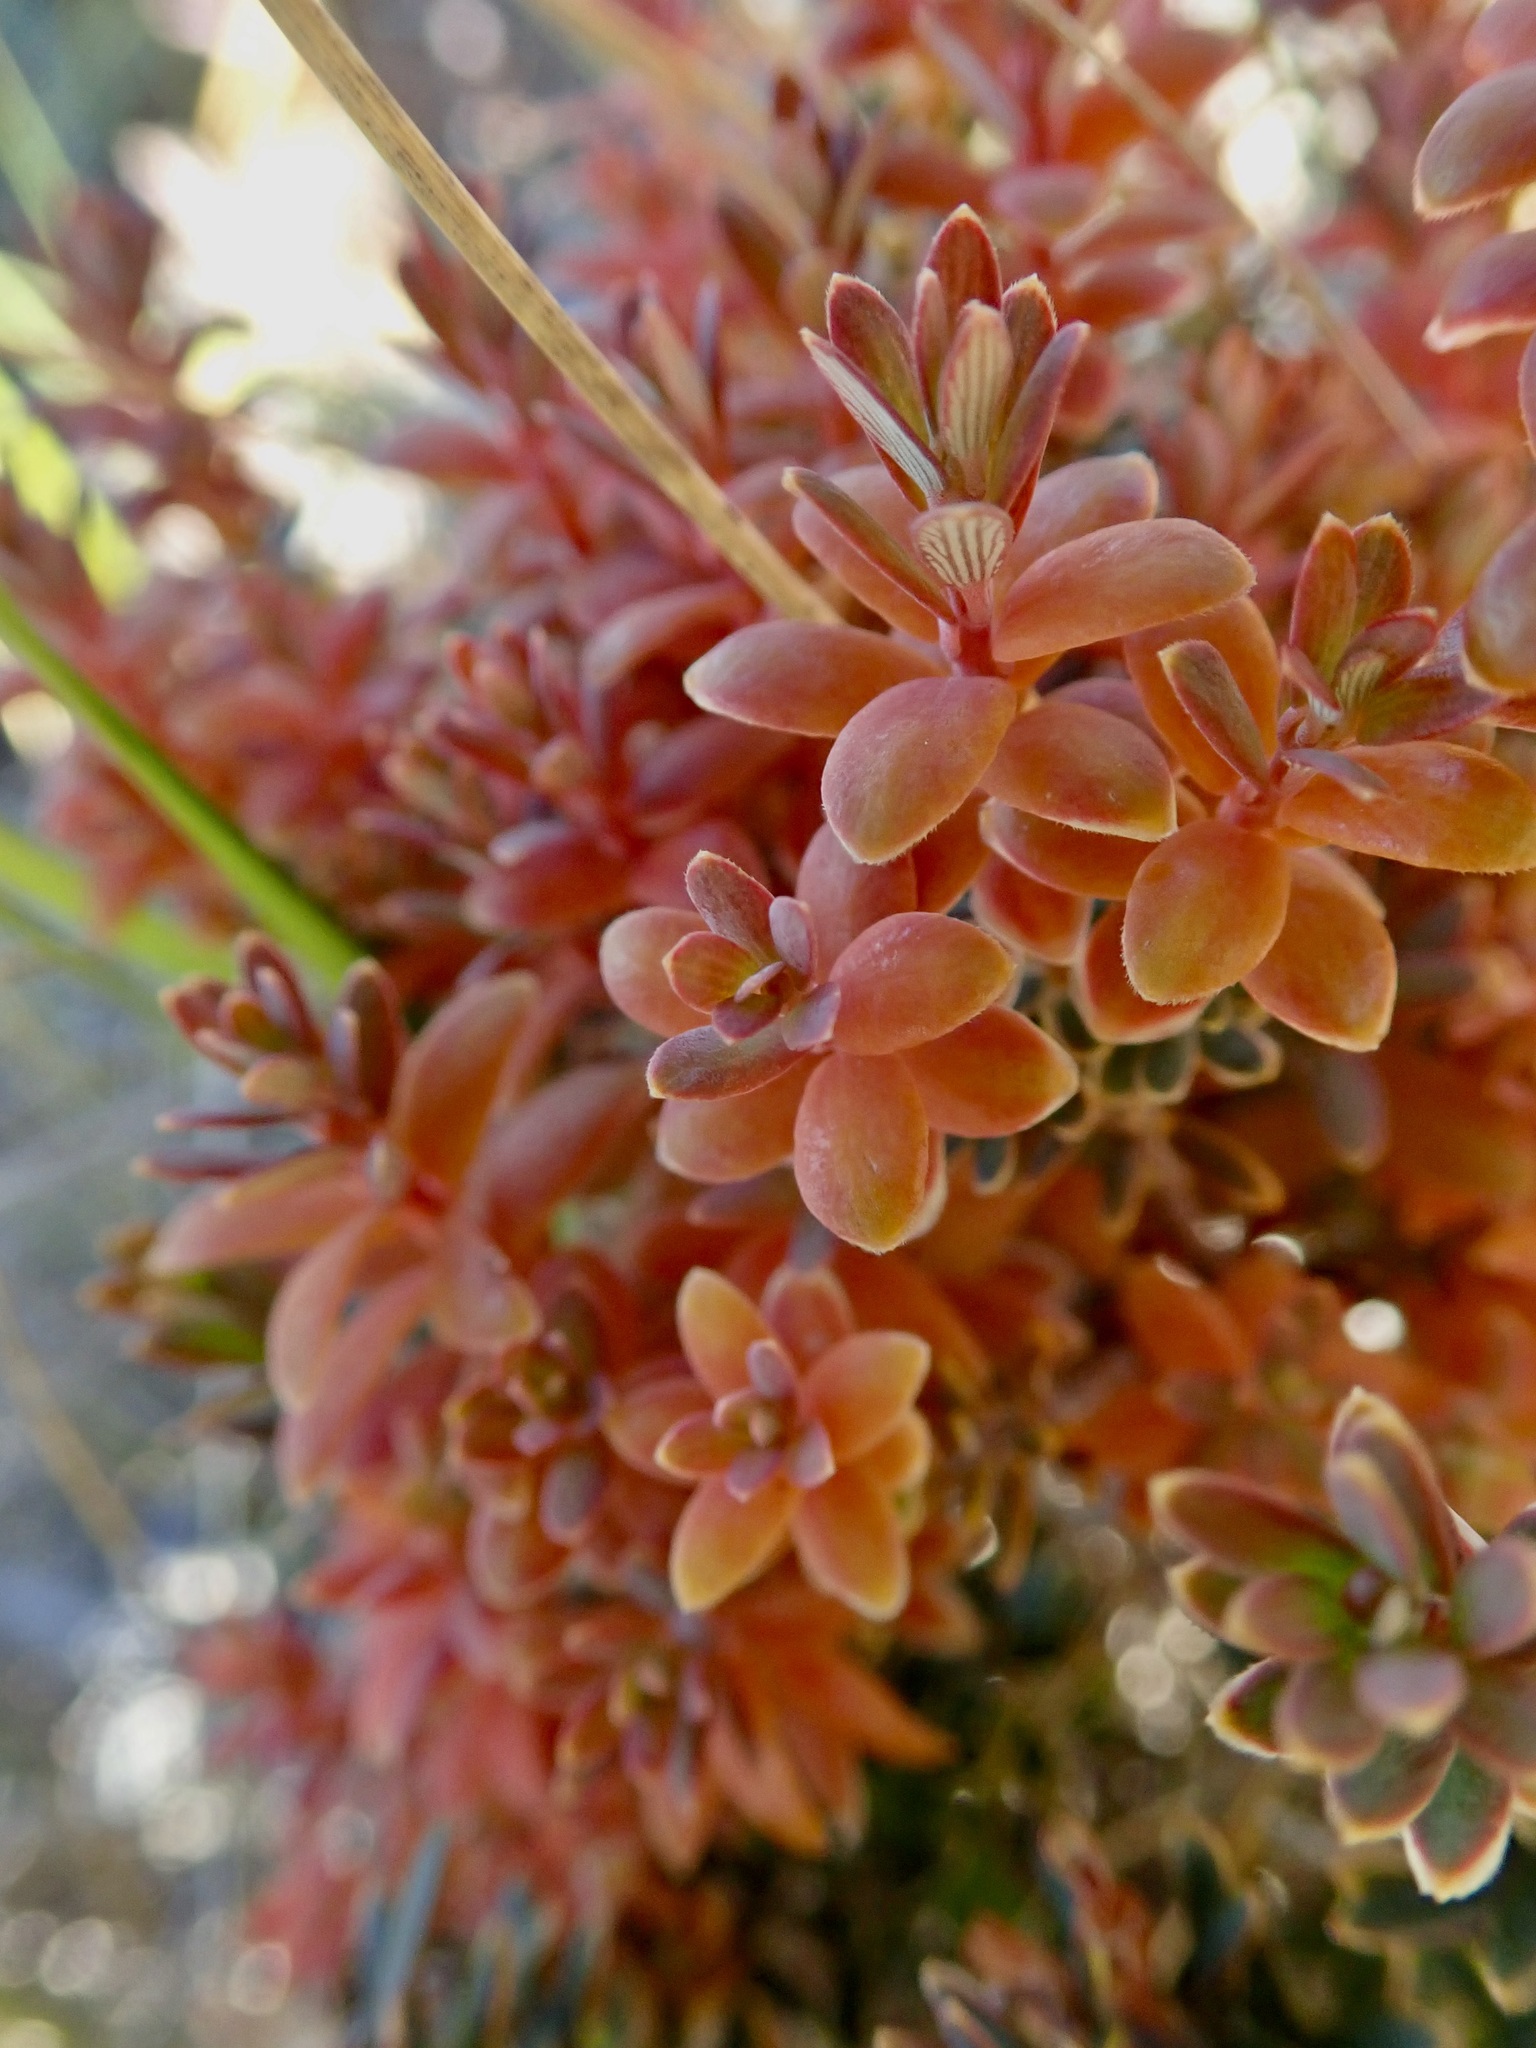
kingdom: Plantae
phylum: Tracheophyta
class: Magnoliopsida
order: Ericales
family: Ericaceae
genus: Acrothamnus
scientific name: Acrothamnus colensoi
